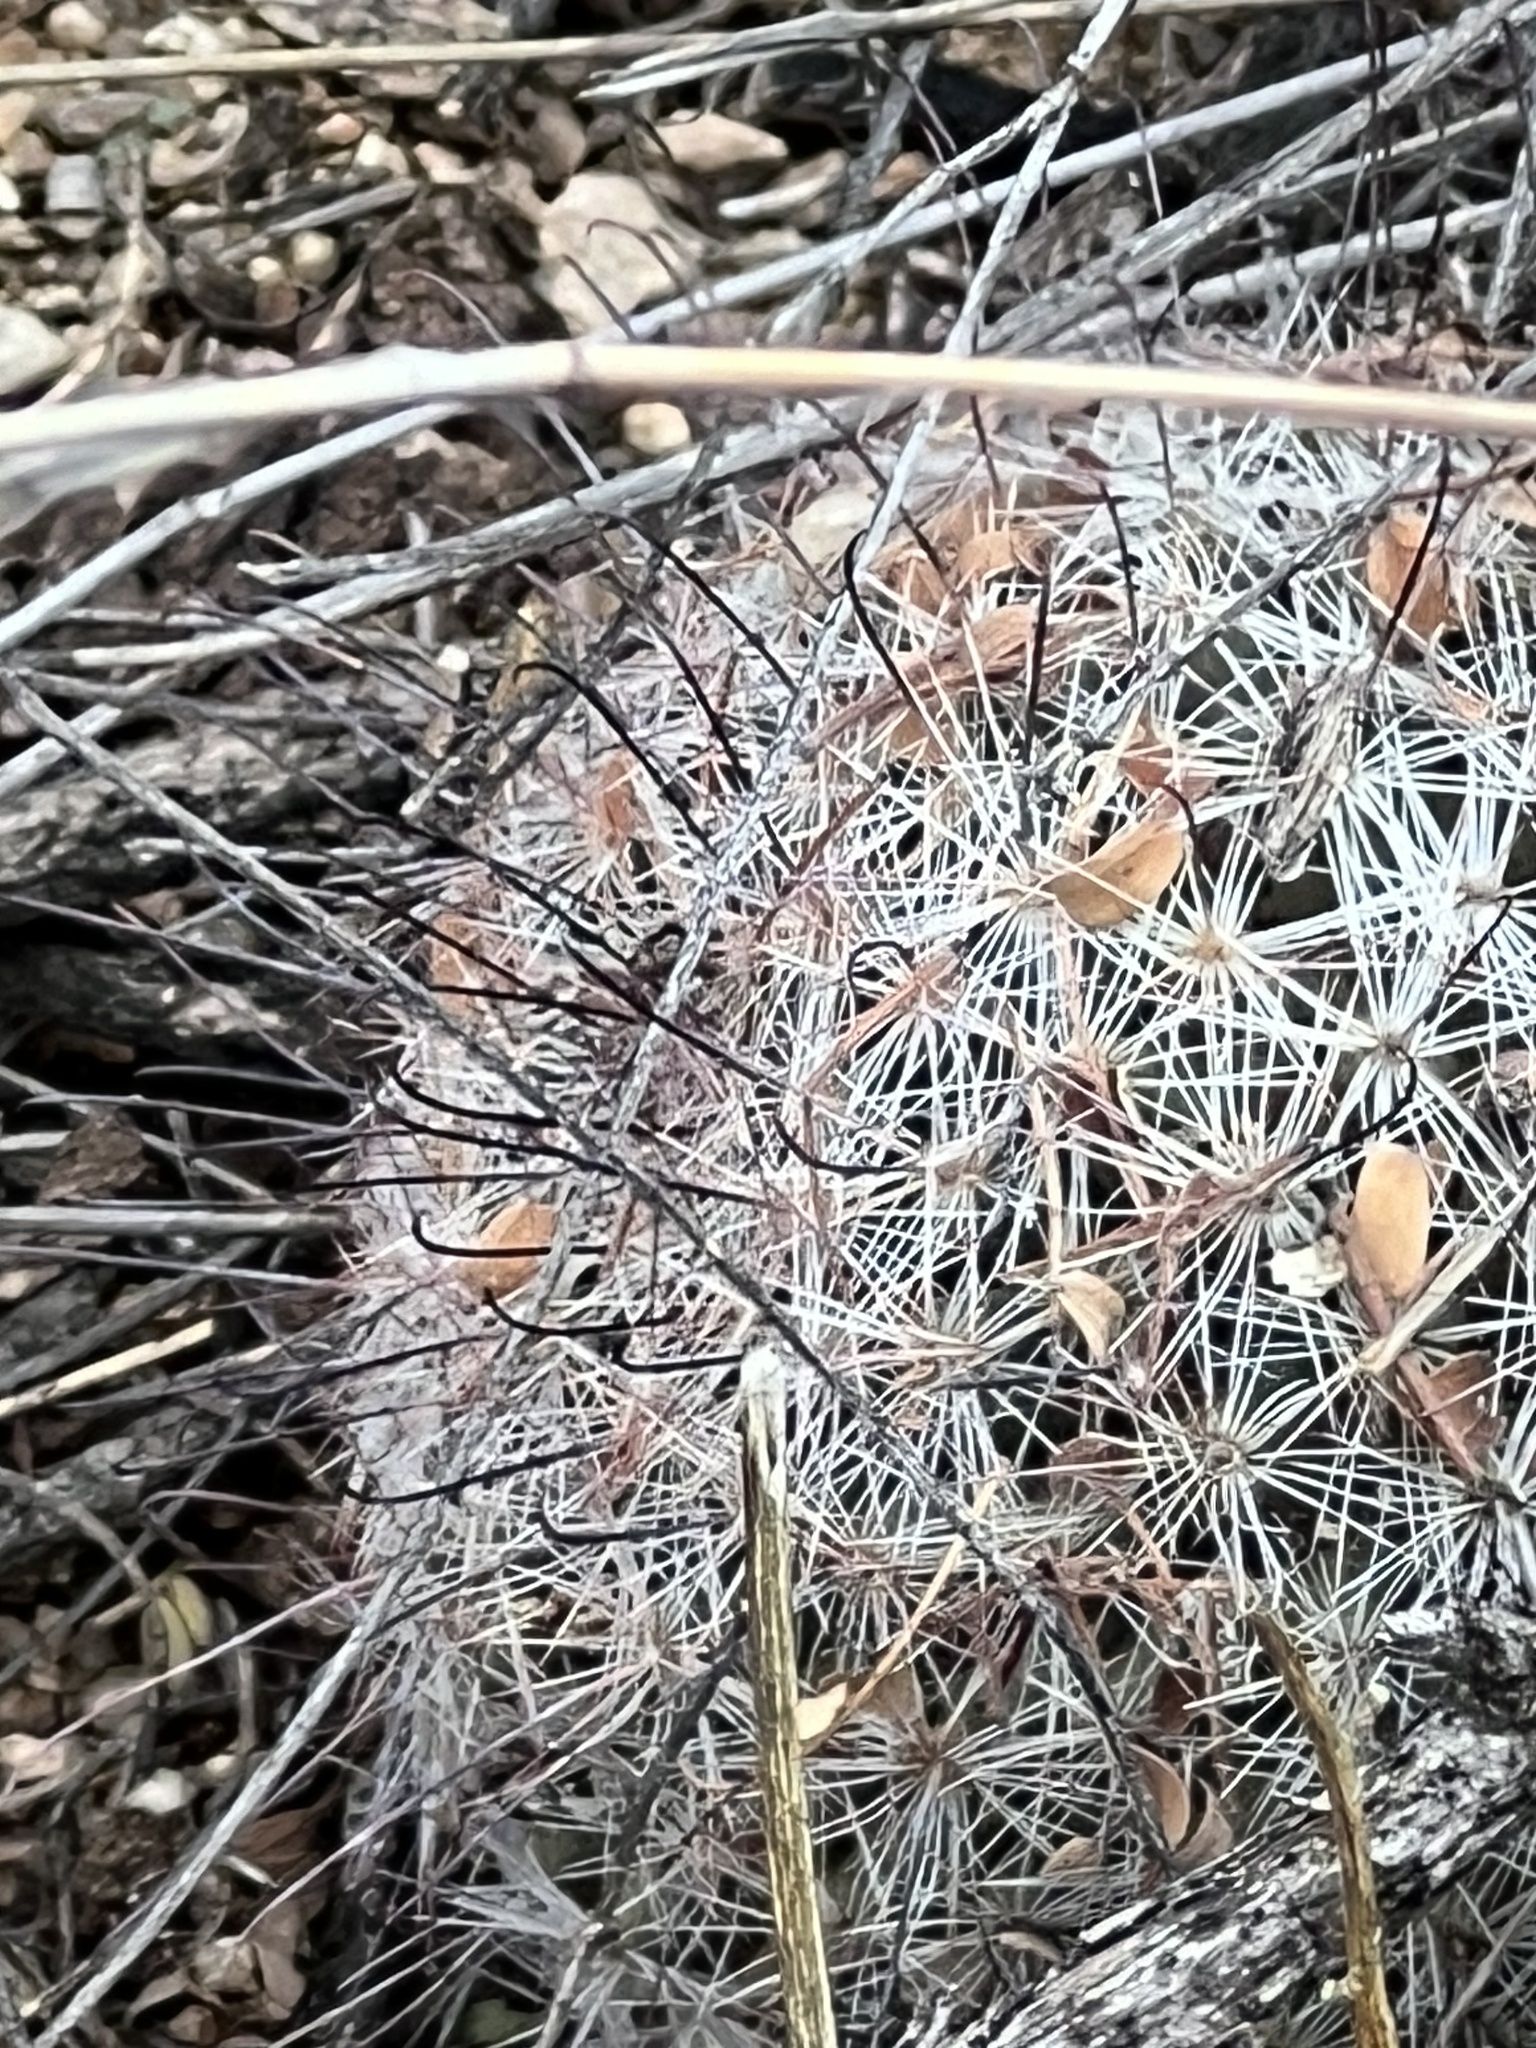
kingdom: Plantae
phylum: Tracheophyta
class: Magnoliopsida
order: Caryophyllales
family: Cactaceae
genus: Cochemiea
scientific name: Cochemiea grahamii
